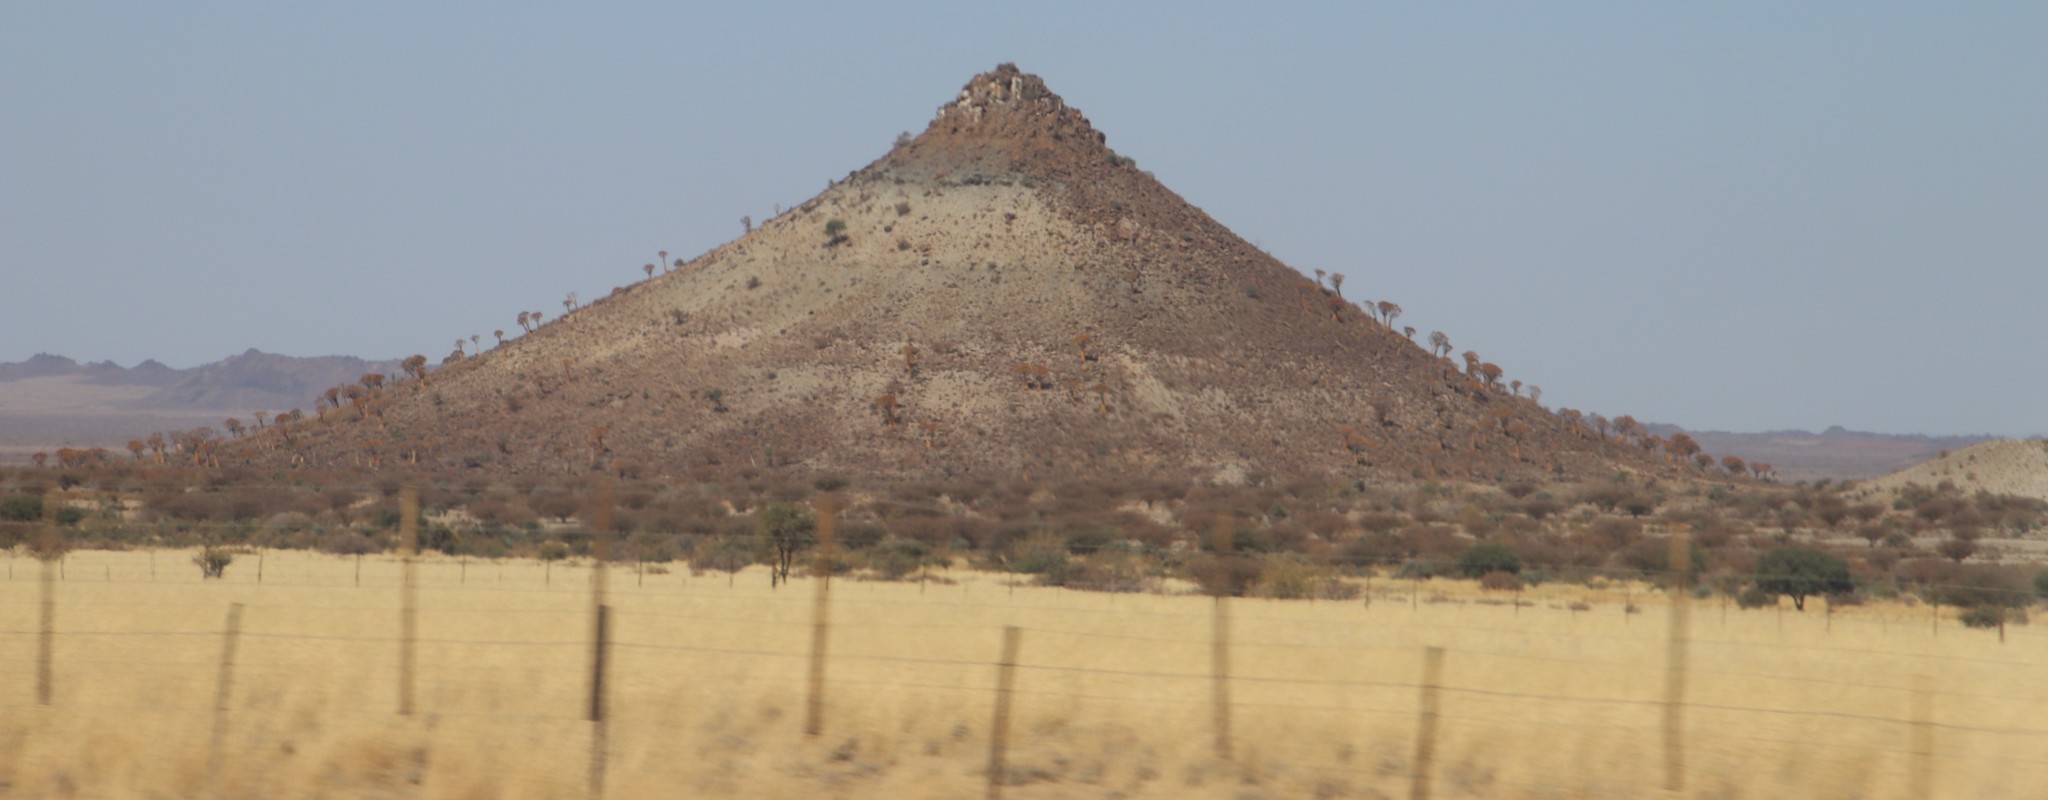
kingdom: Plantae
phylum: Tracheophyta
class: Liliopsida
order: Asparagales
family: Asphodelaceae
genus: Aloidendron
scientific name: Aloidendron dichotomum
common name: Quiver tree
